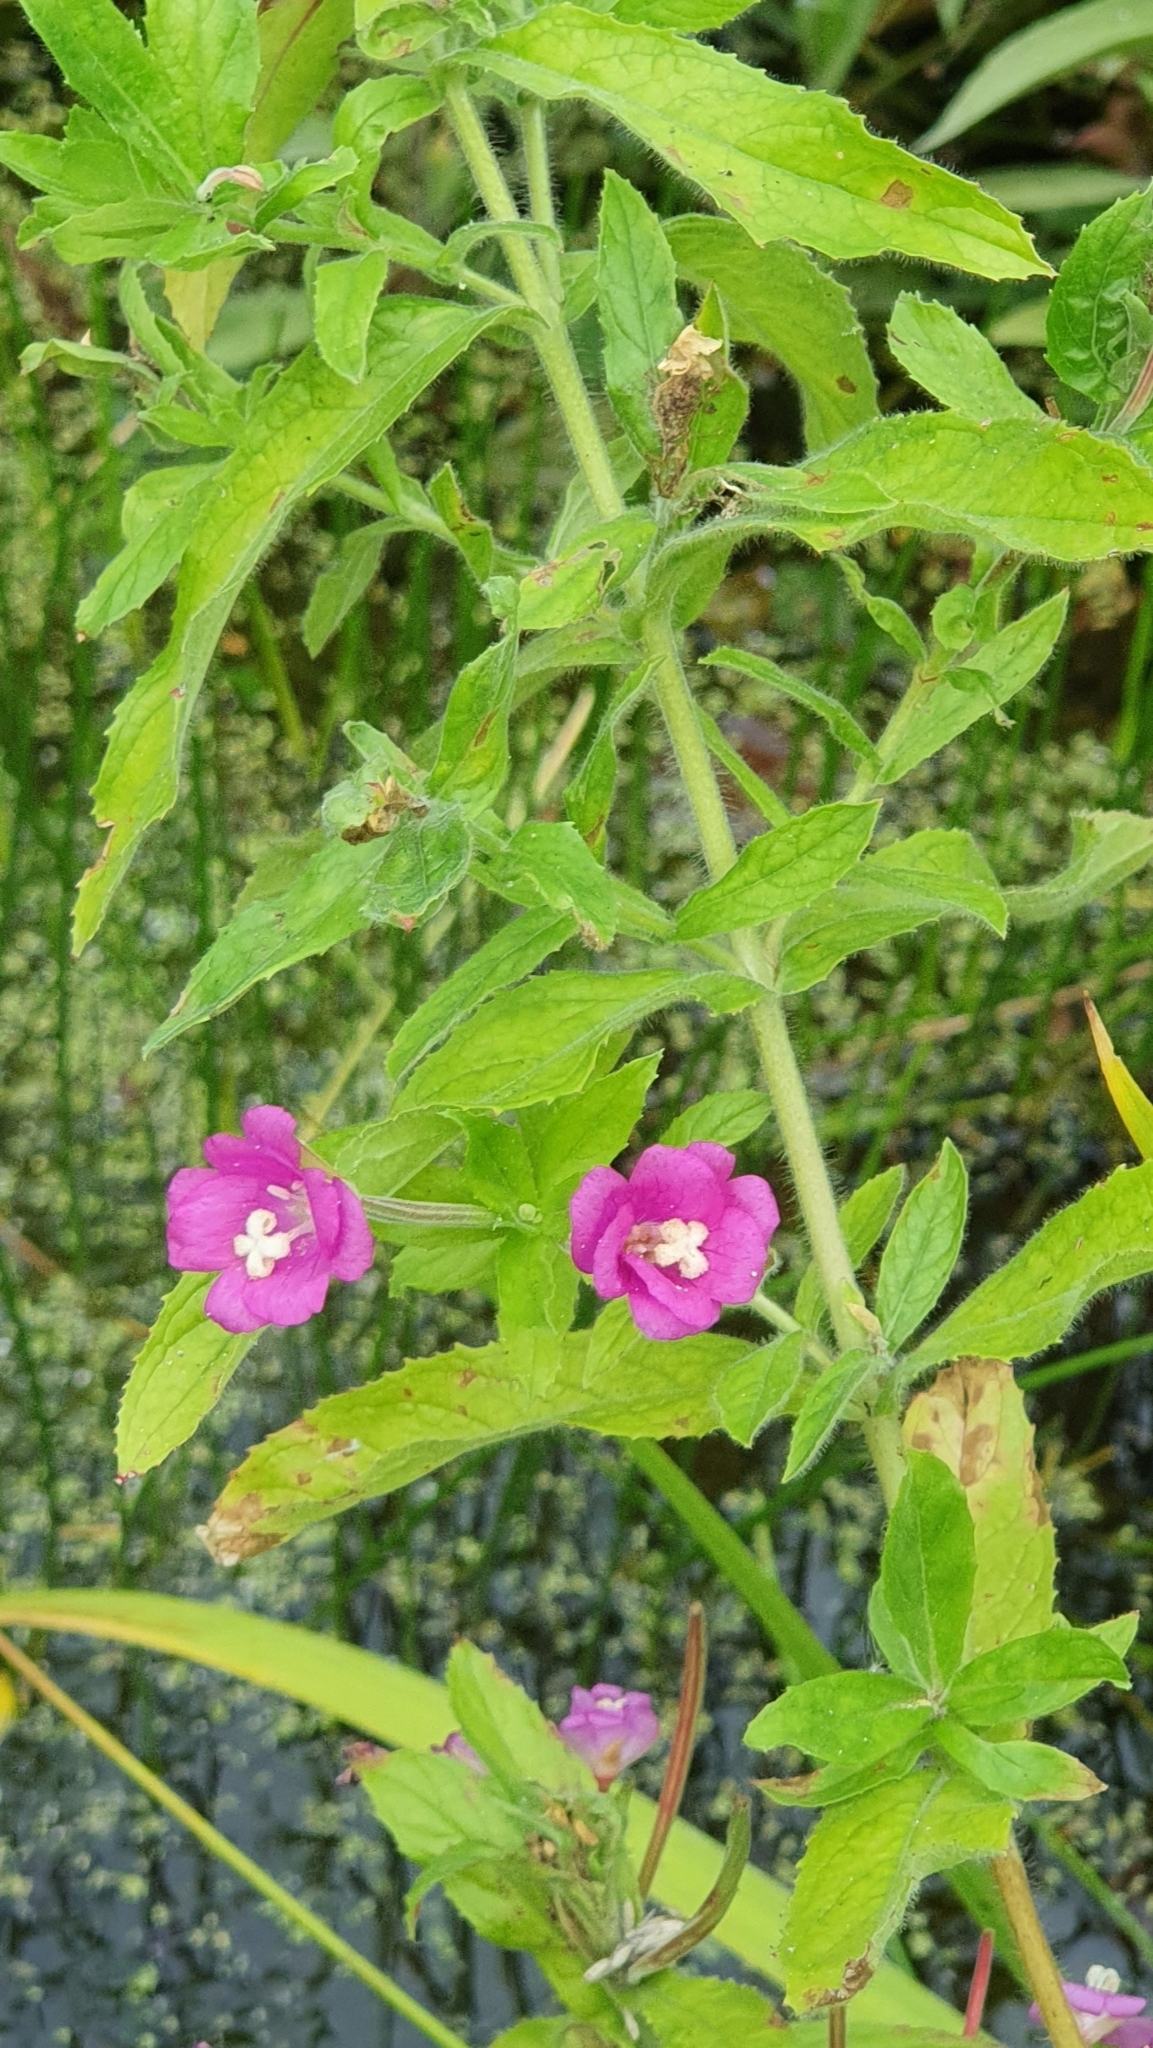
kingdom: Plantae
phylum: Tracheophyta
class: Magnoliopsida
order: Myrtales
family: Onagraceae
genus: Epilobium
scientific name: Epilobium hirsutum
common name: Great willowherb
